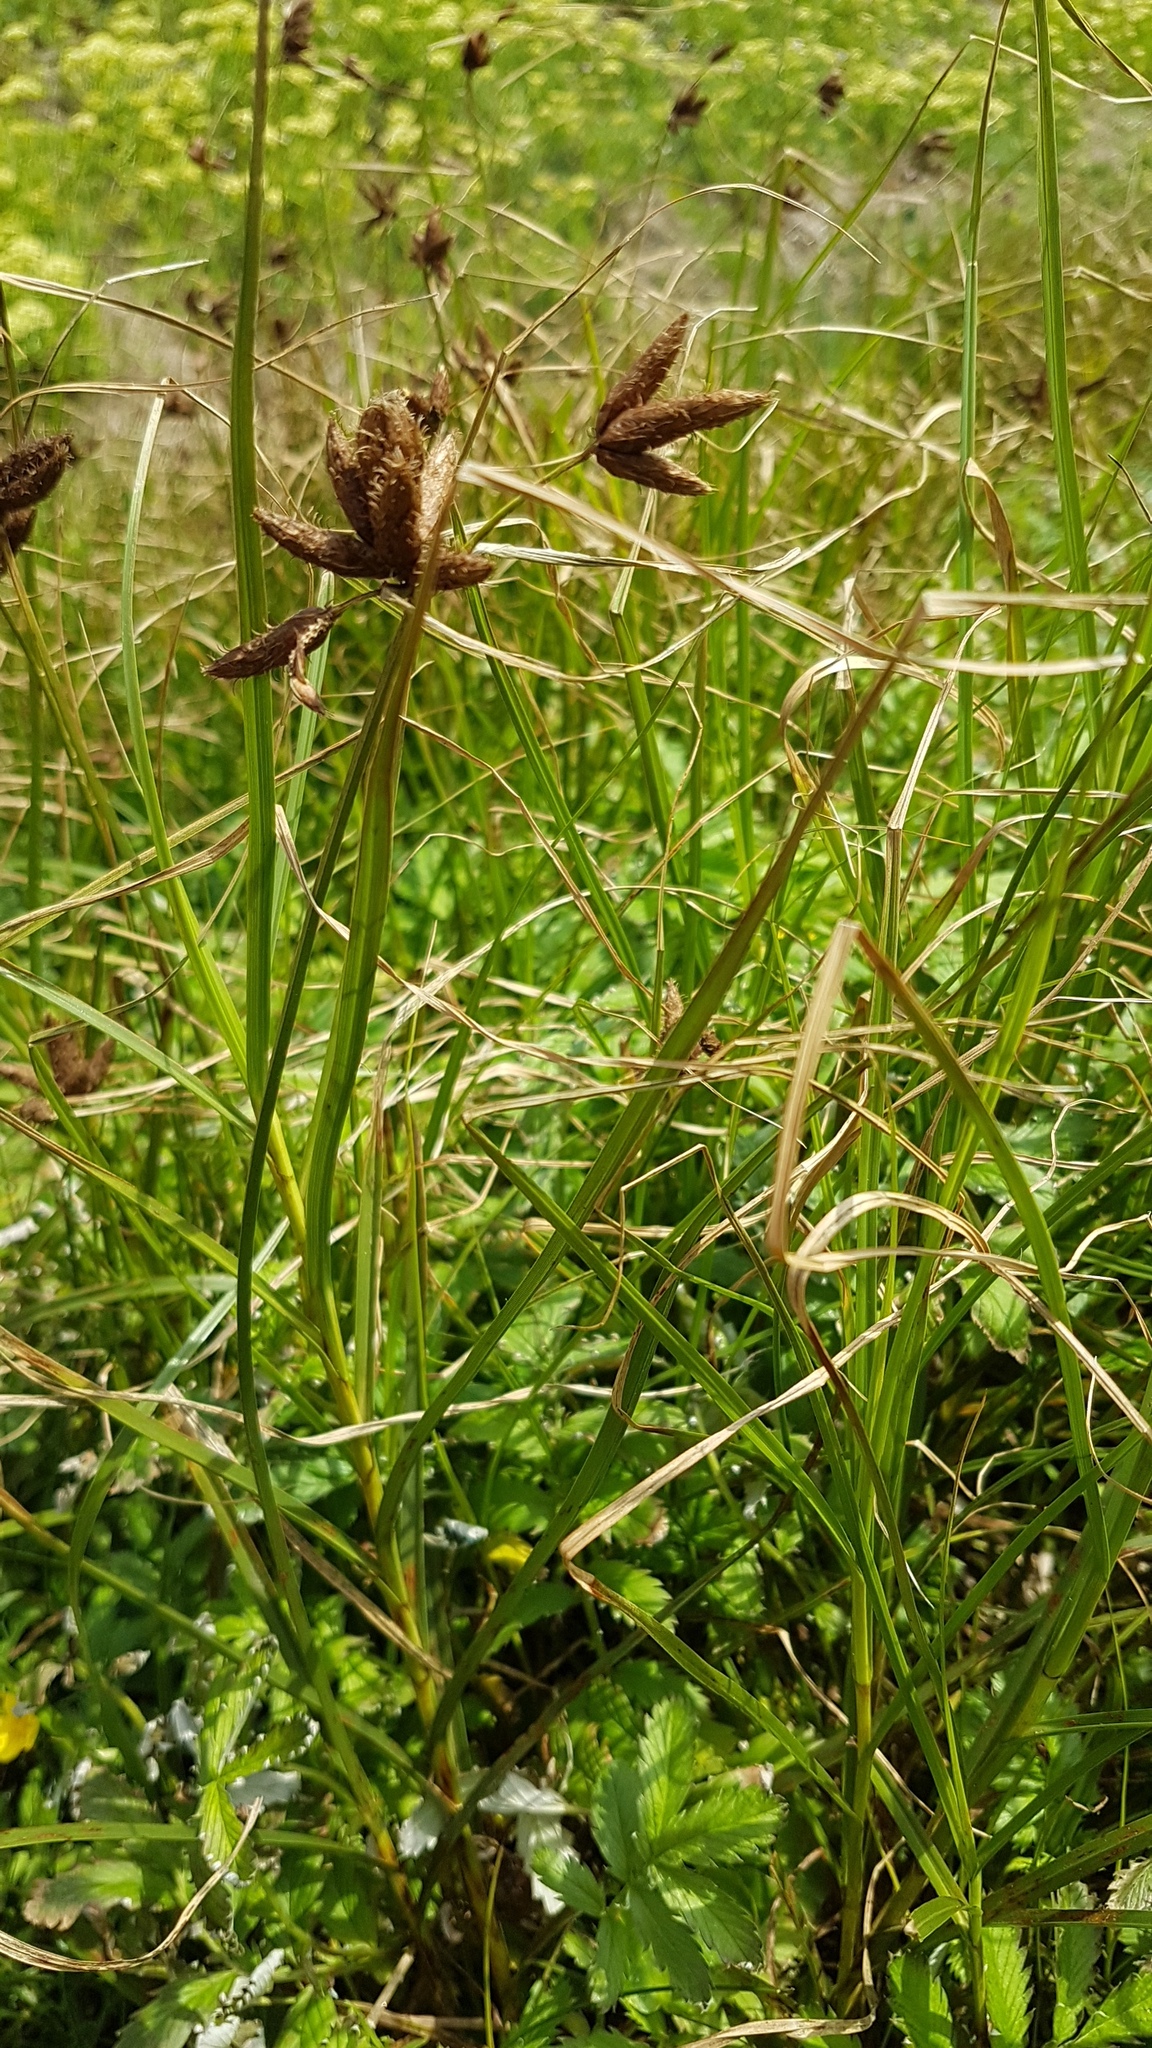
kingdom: Plantae
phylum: Tracheophyta
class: Liliopsida
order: Poales
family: Cyperaceae
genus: Bolboschoenus
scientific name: Bolboschoenus maritimus
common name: Sea club-rush
